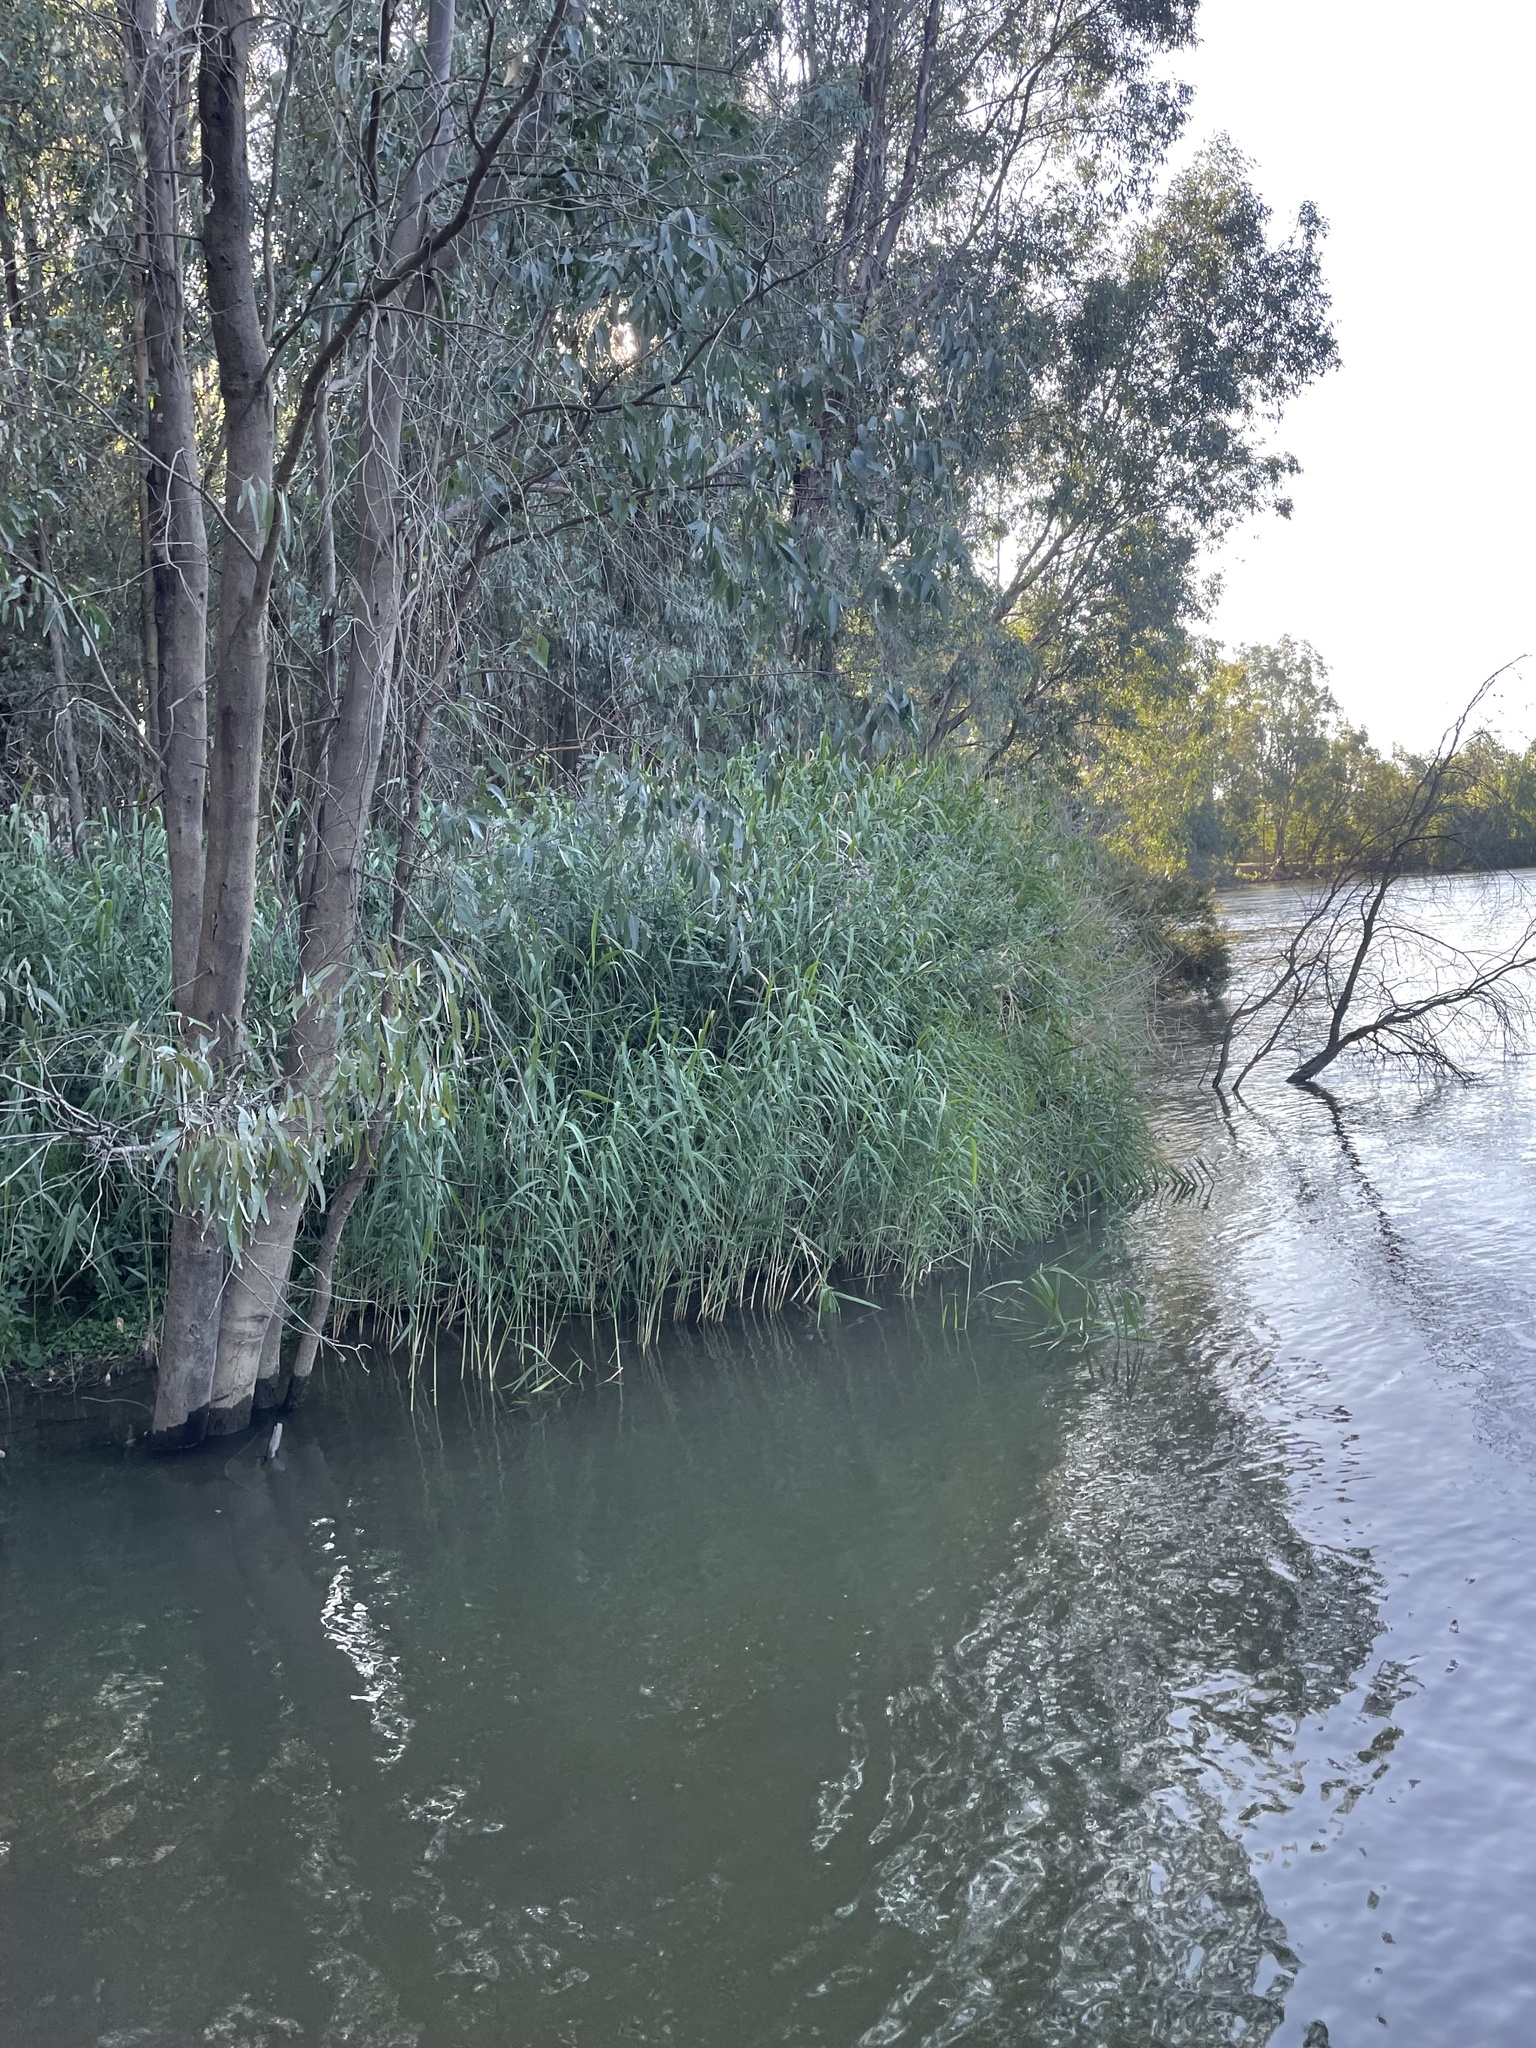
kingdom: Plantae
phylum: Tracheophyta
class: Liliopsida
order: Poales
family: Poaceae
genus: Phragmites
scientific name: Phragmites australis
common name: Common reed
